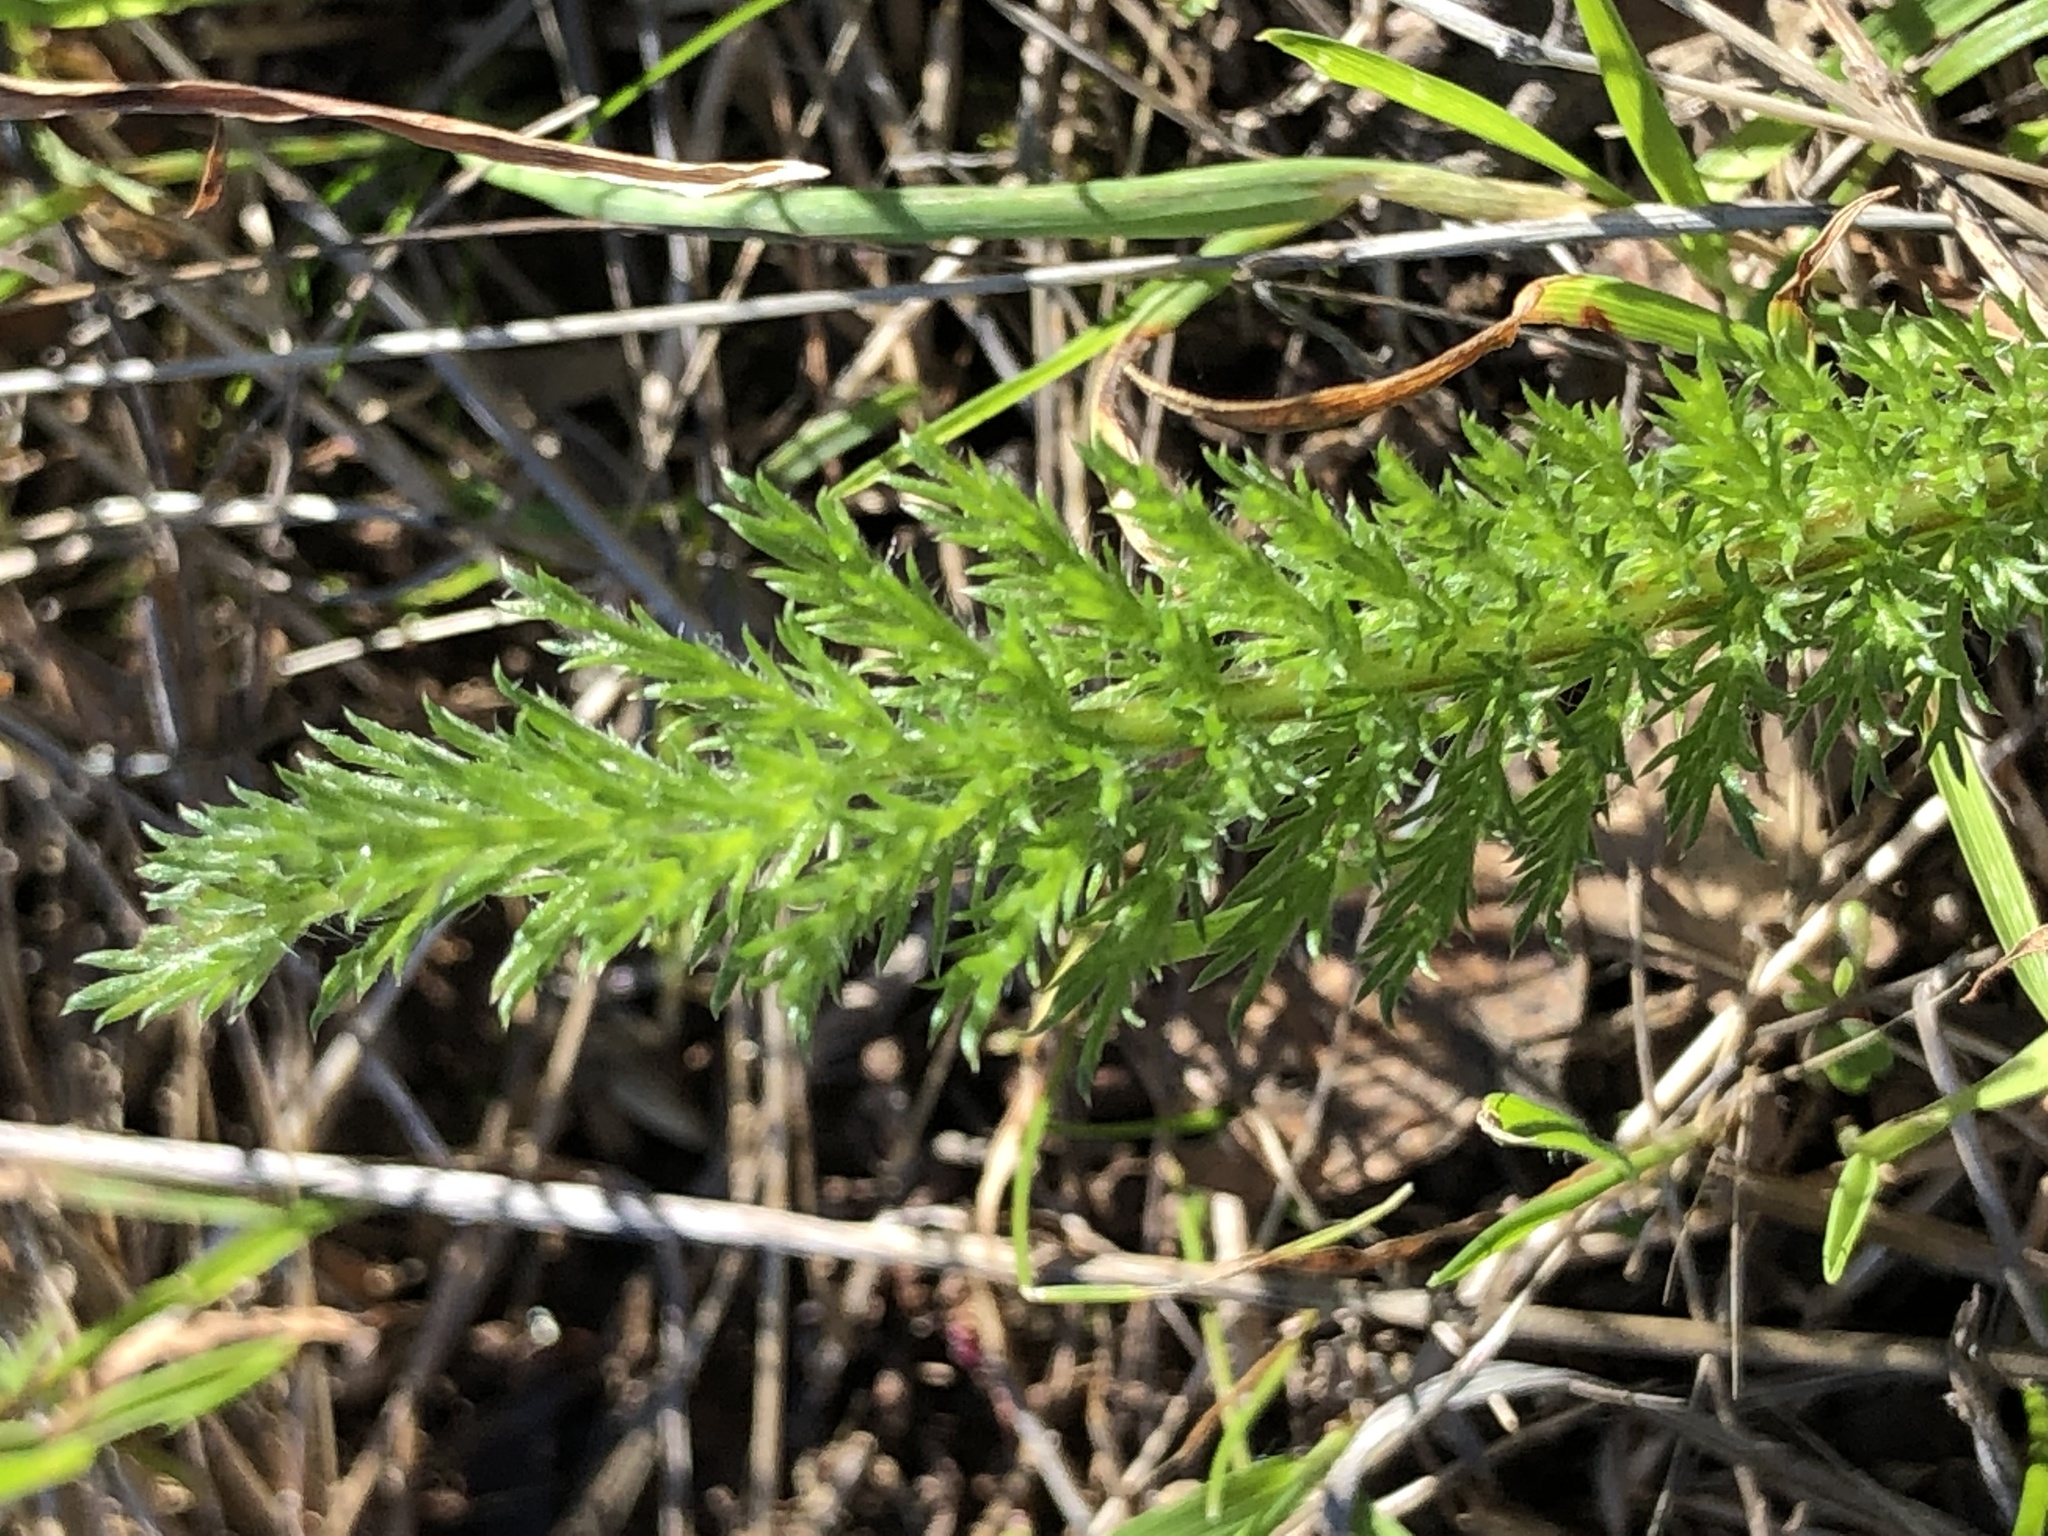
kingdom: Plantae
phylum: Tracheophyta
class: Magnoliopsida
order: Asterales
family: Asteraceae
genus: Achillea
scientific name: Achillea millefolium
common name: Yarrow
